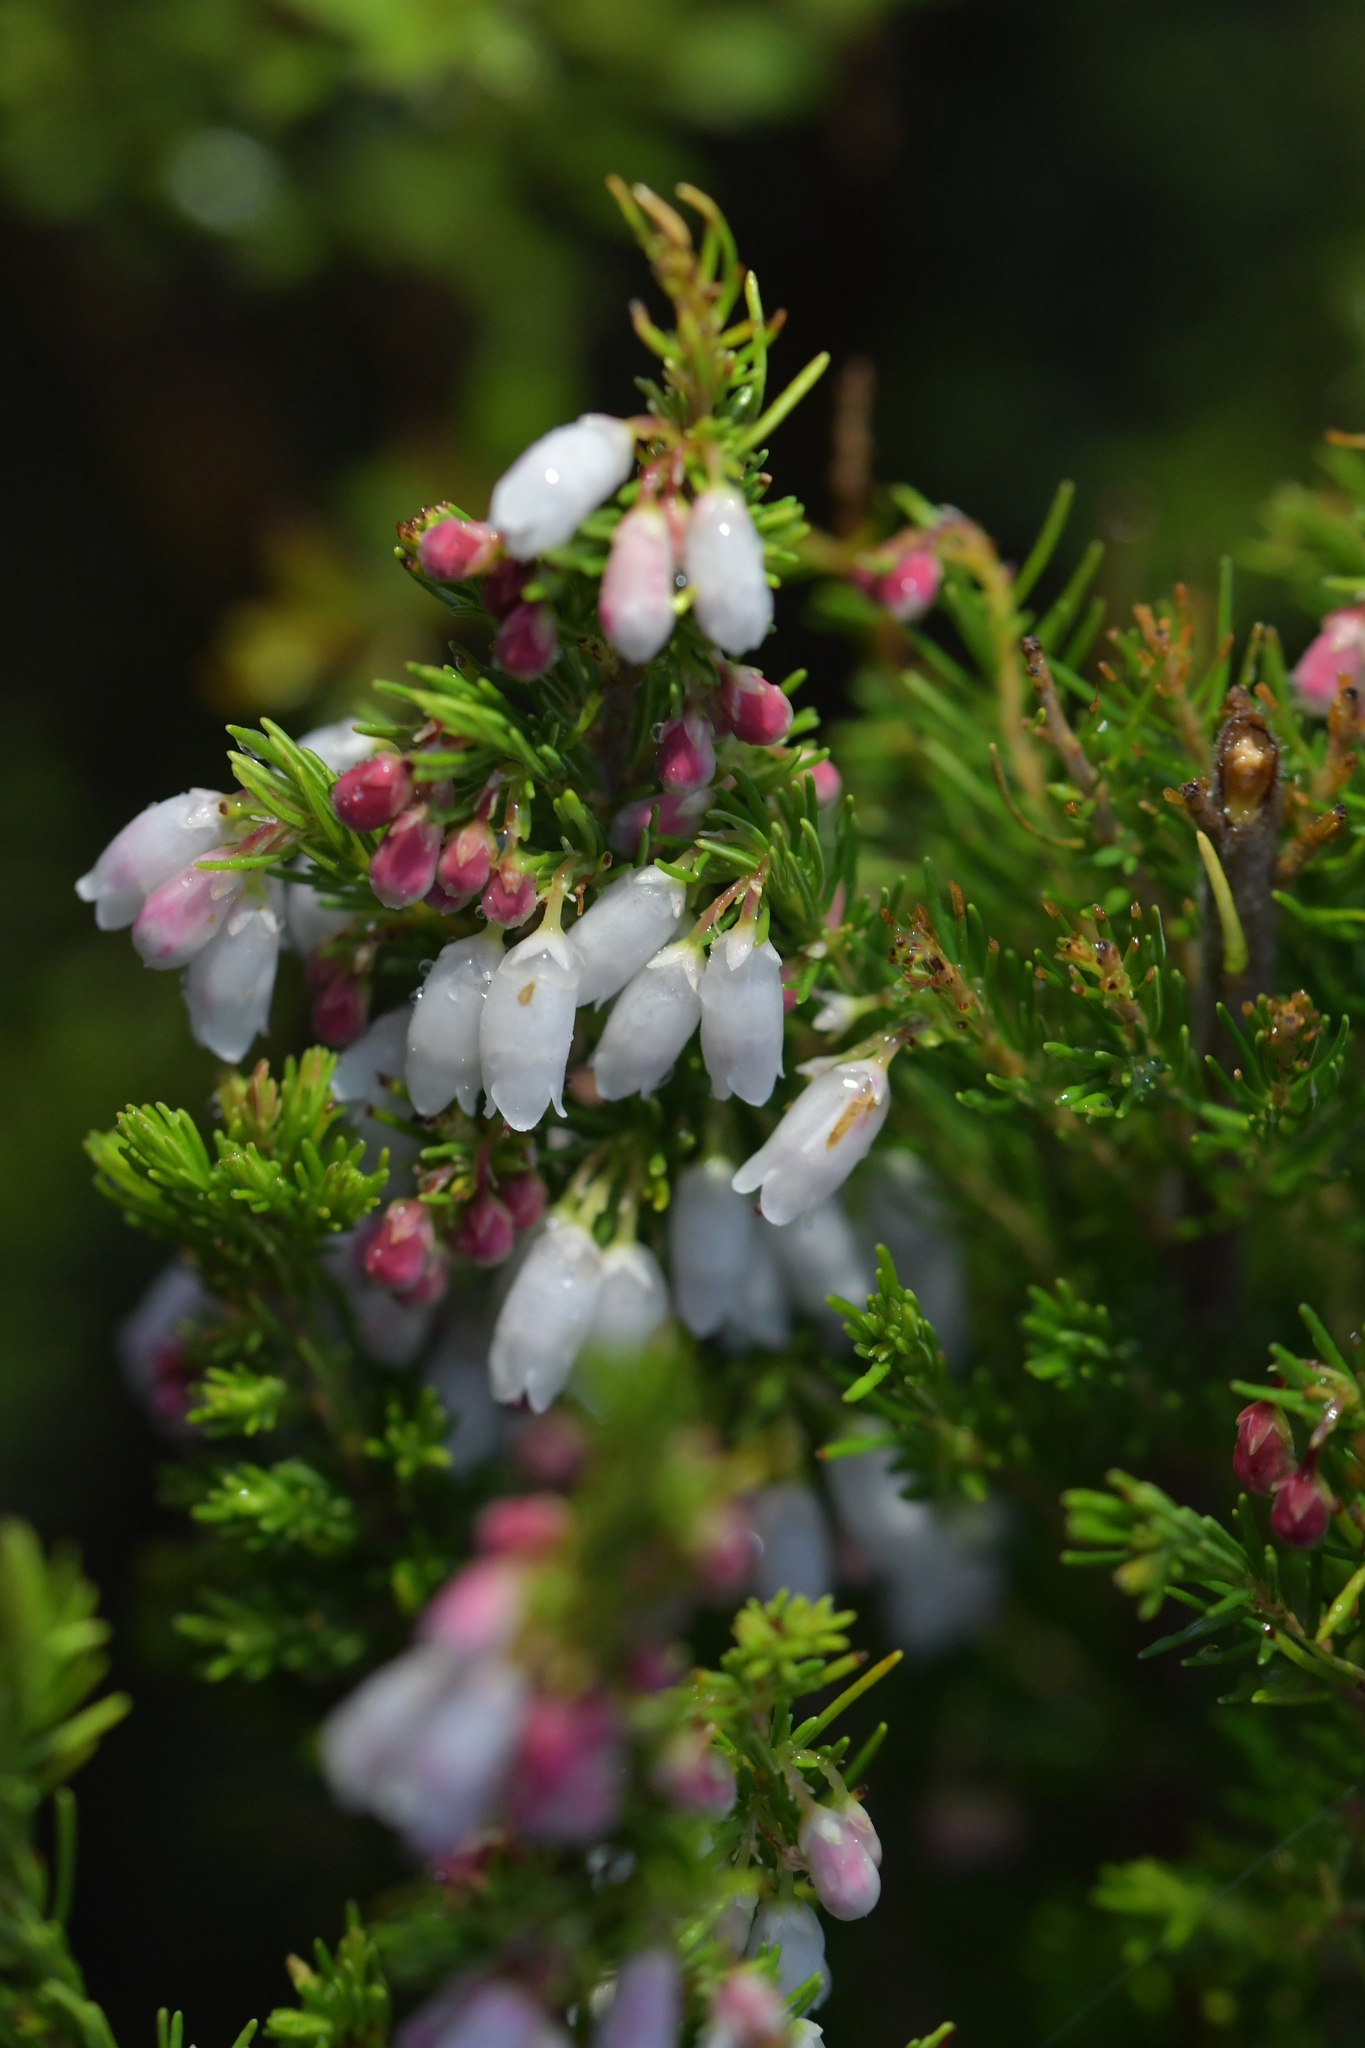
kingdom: Plantae
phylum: Tracheophyta
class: Magnoliopsida
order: Ericales
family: Ericaceae
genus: Erica
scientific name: Erica lusitanica
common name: Spanish heath
